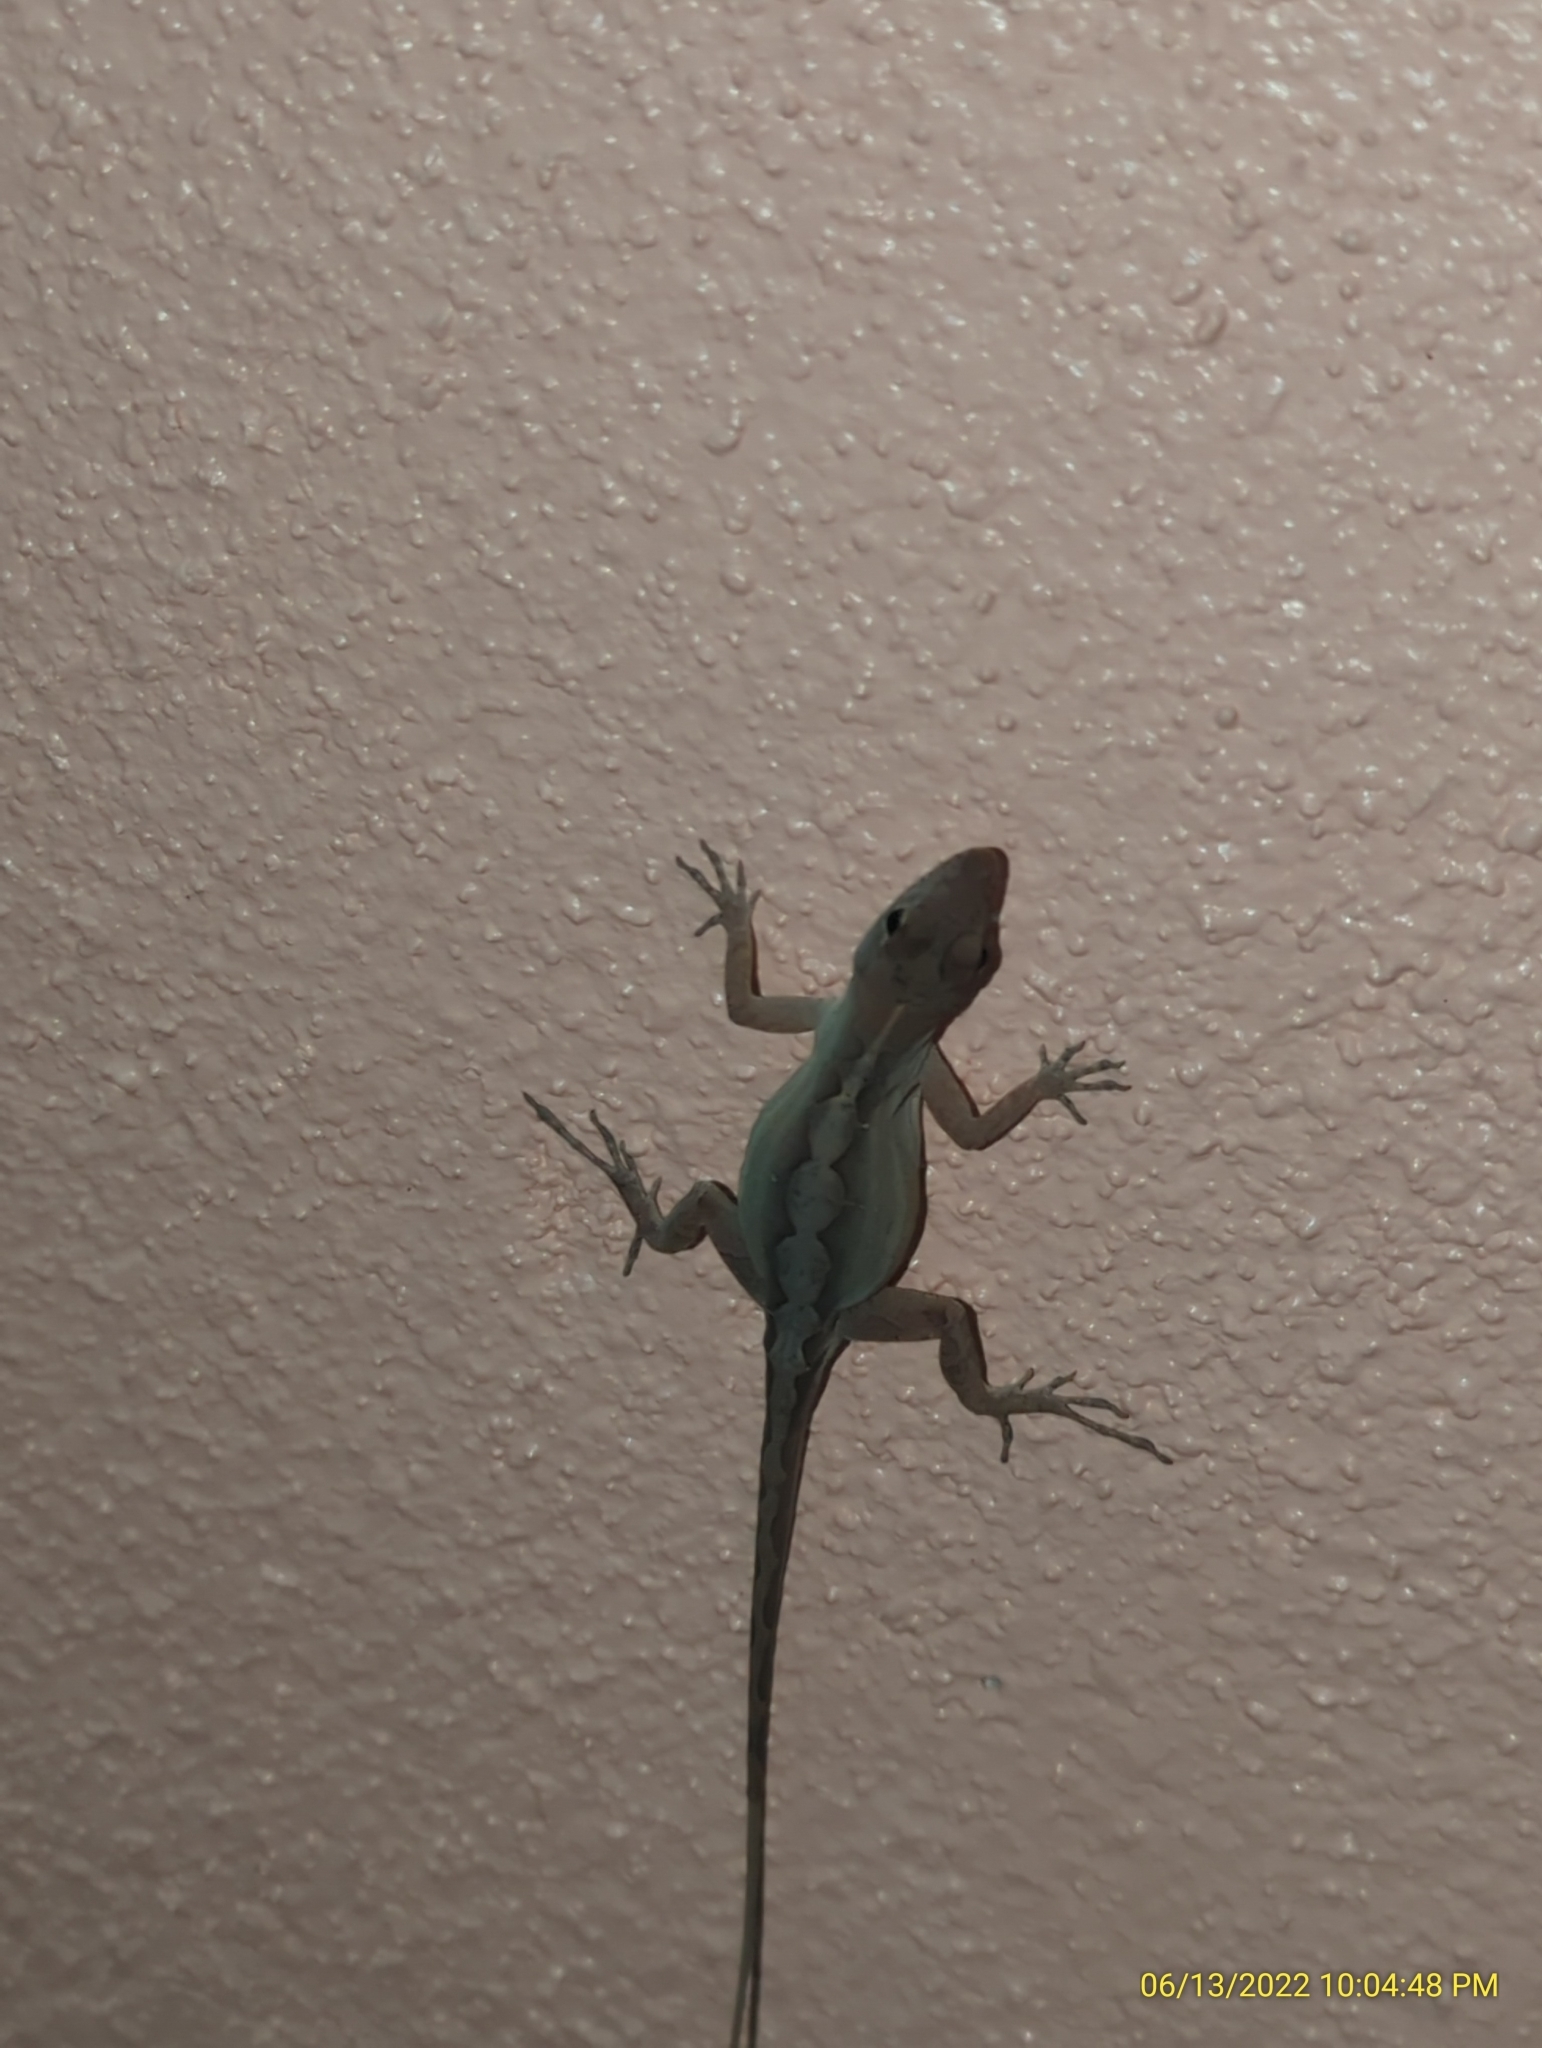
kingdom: Animalia
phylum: Chordata
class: Squamata
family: Dactyloidae
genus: Anolis
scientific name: Anolis sagrei
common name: Brown anole
